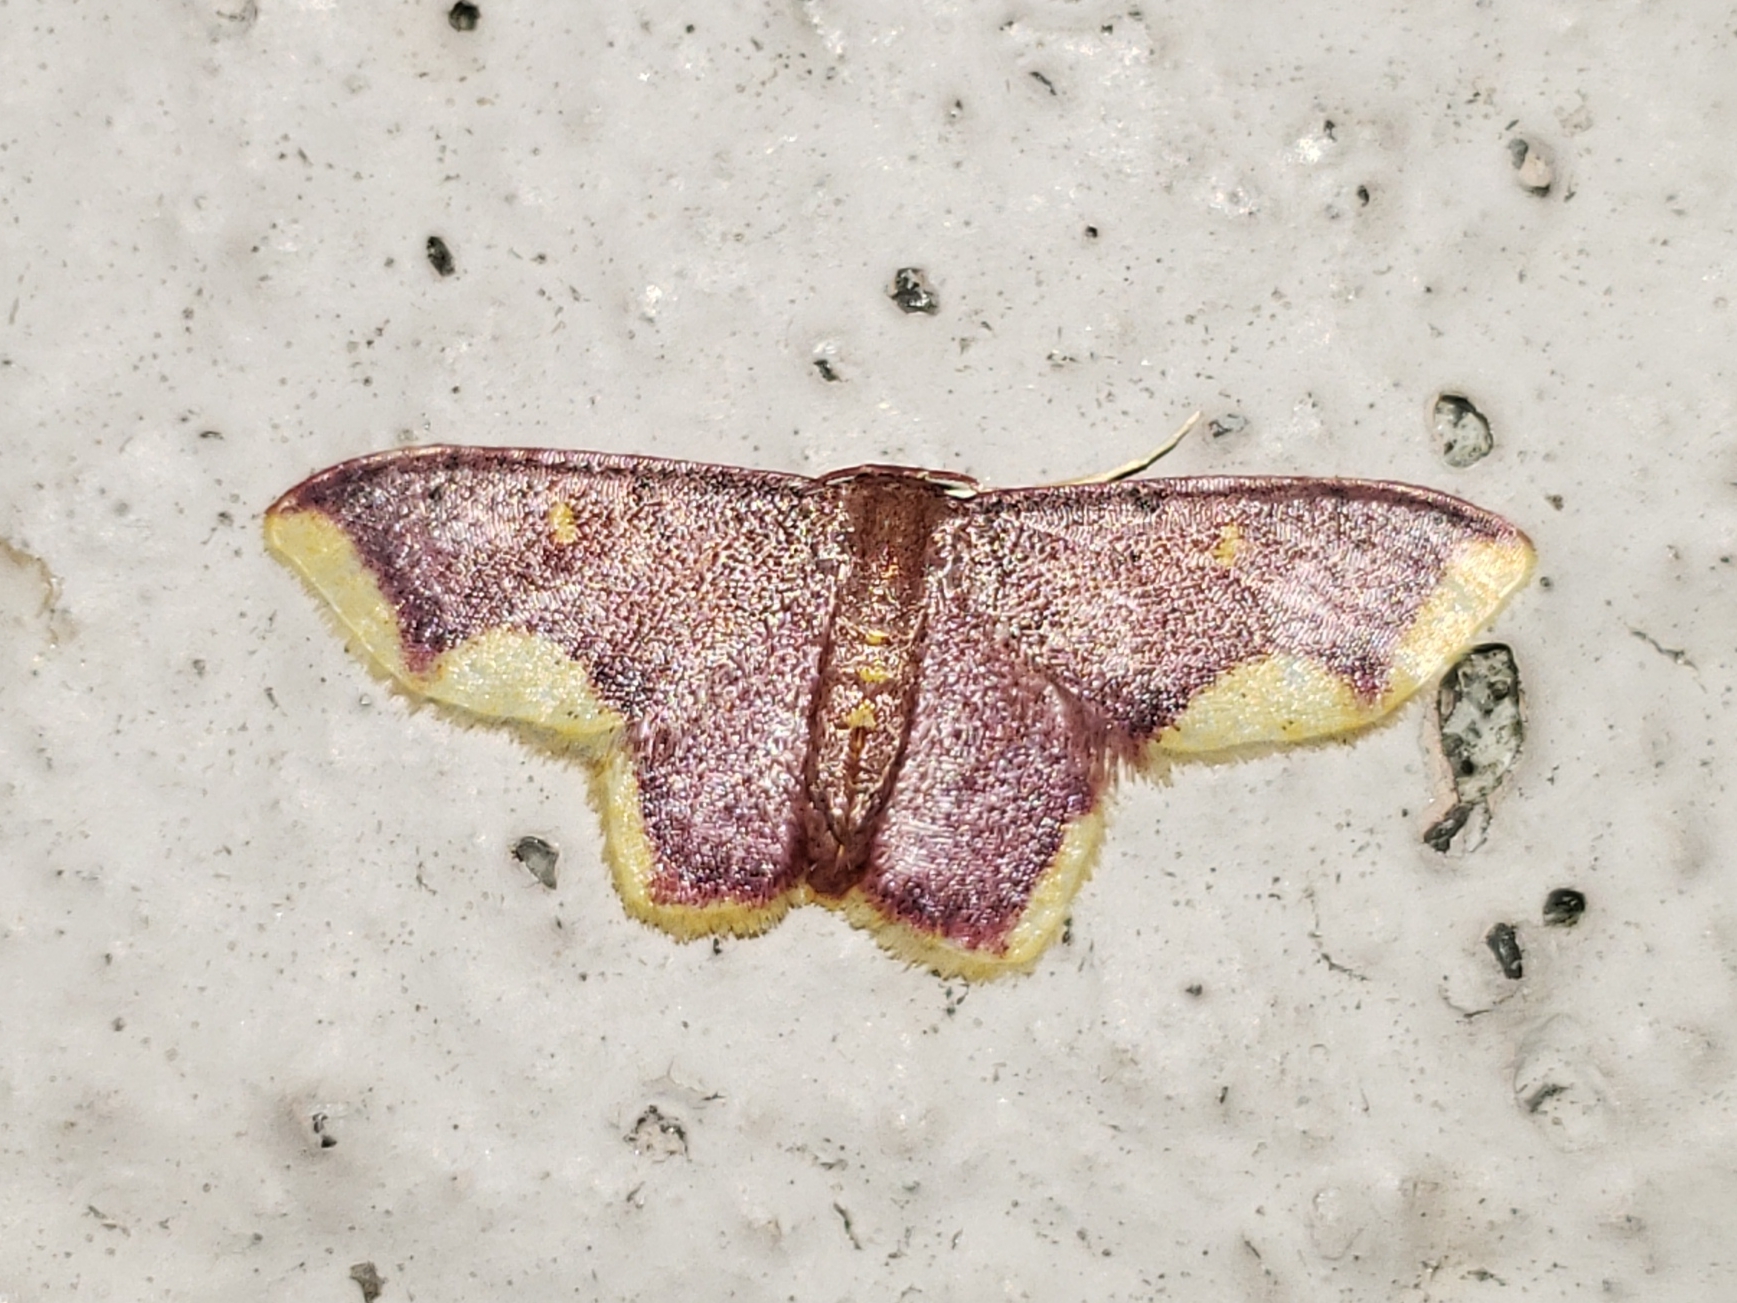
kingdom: Animalia
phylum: Arthropoda
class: Insecta
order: Lepidoptera
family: Geometridae
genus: Lophosis
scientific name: Lophosis labeculata
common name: Stained lophosis moth
